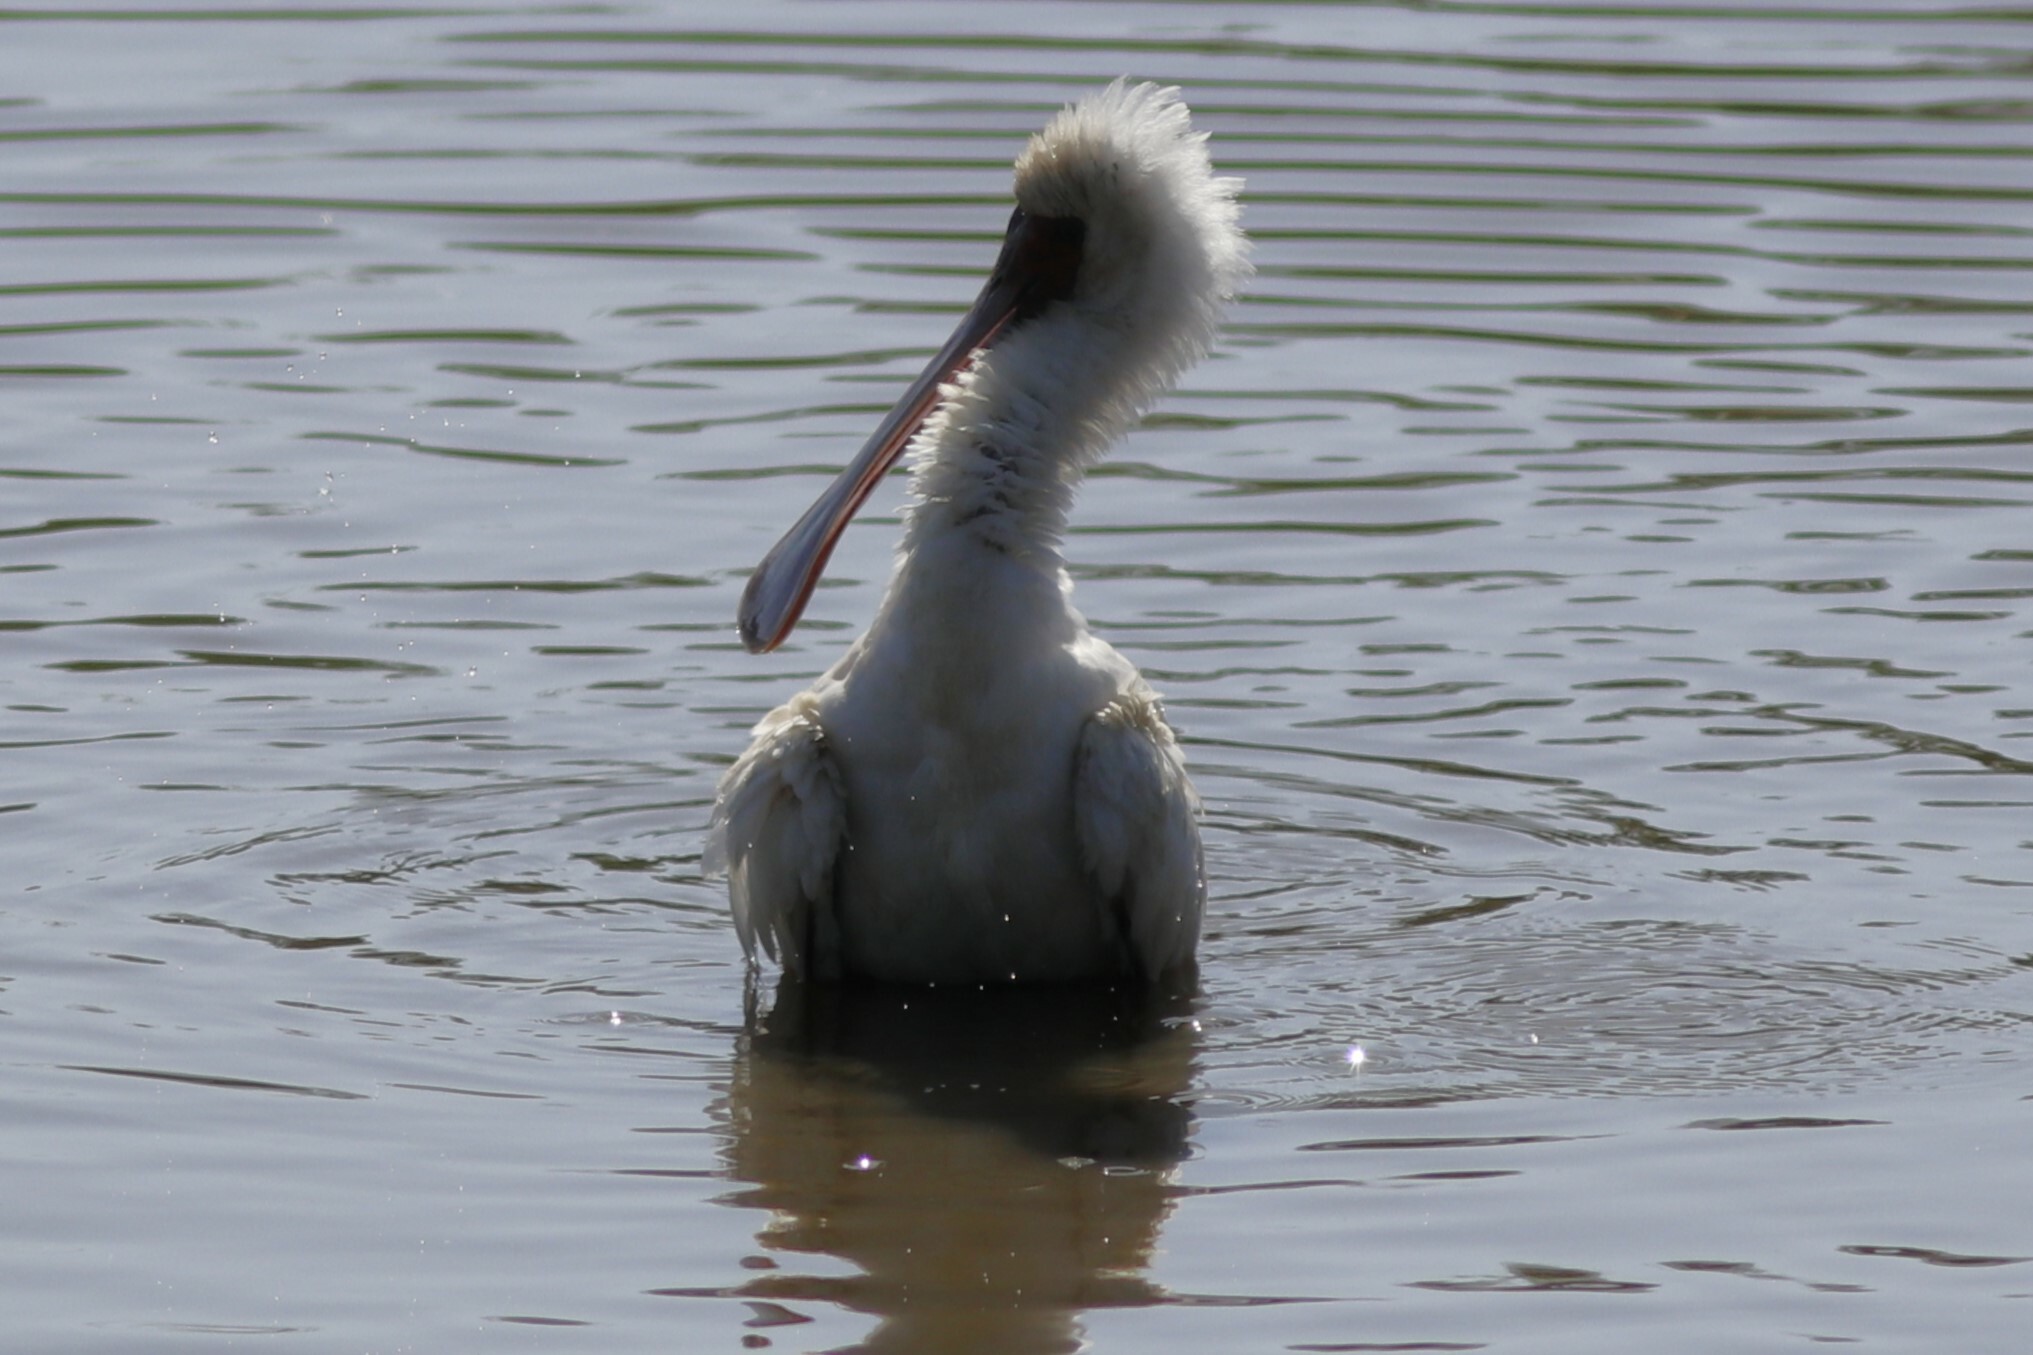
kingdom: Animalia
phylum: Chordata
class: Aves
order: Pelecaniformes
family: Threskiornithidae
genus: Platalea
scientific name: Platalea alba
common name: African spoonbill
